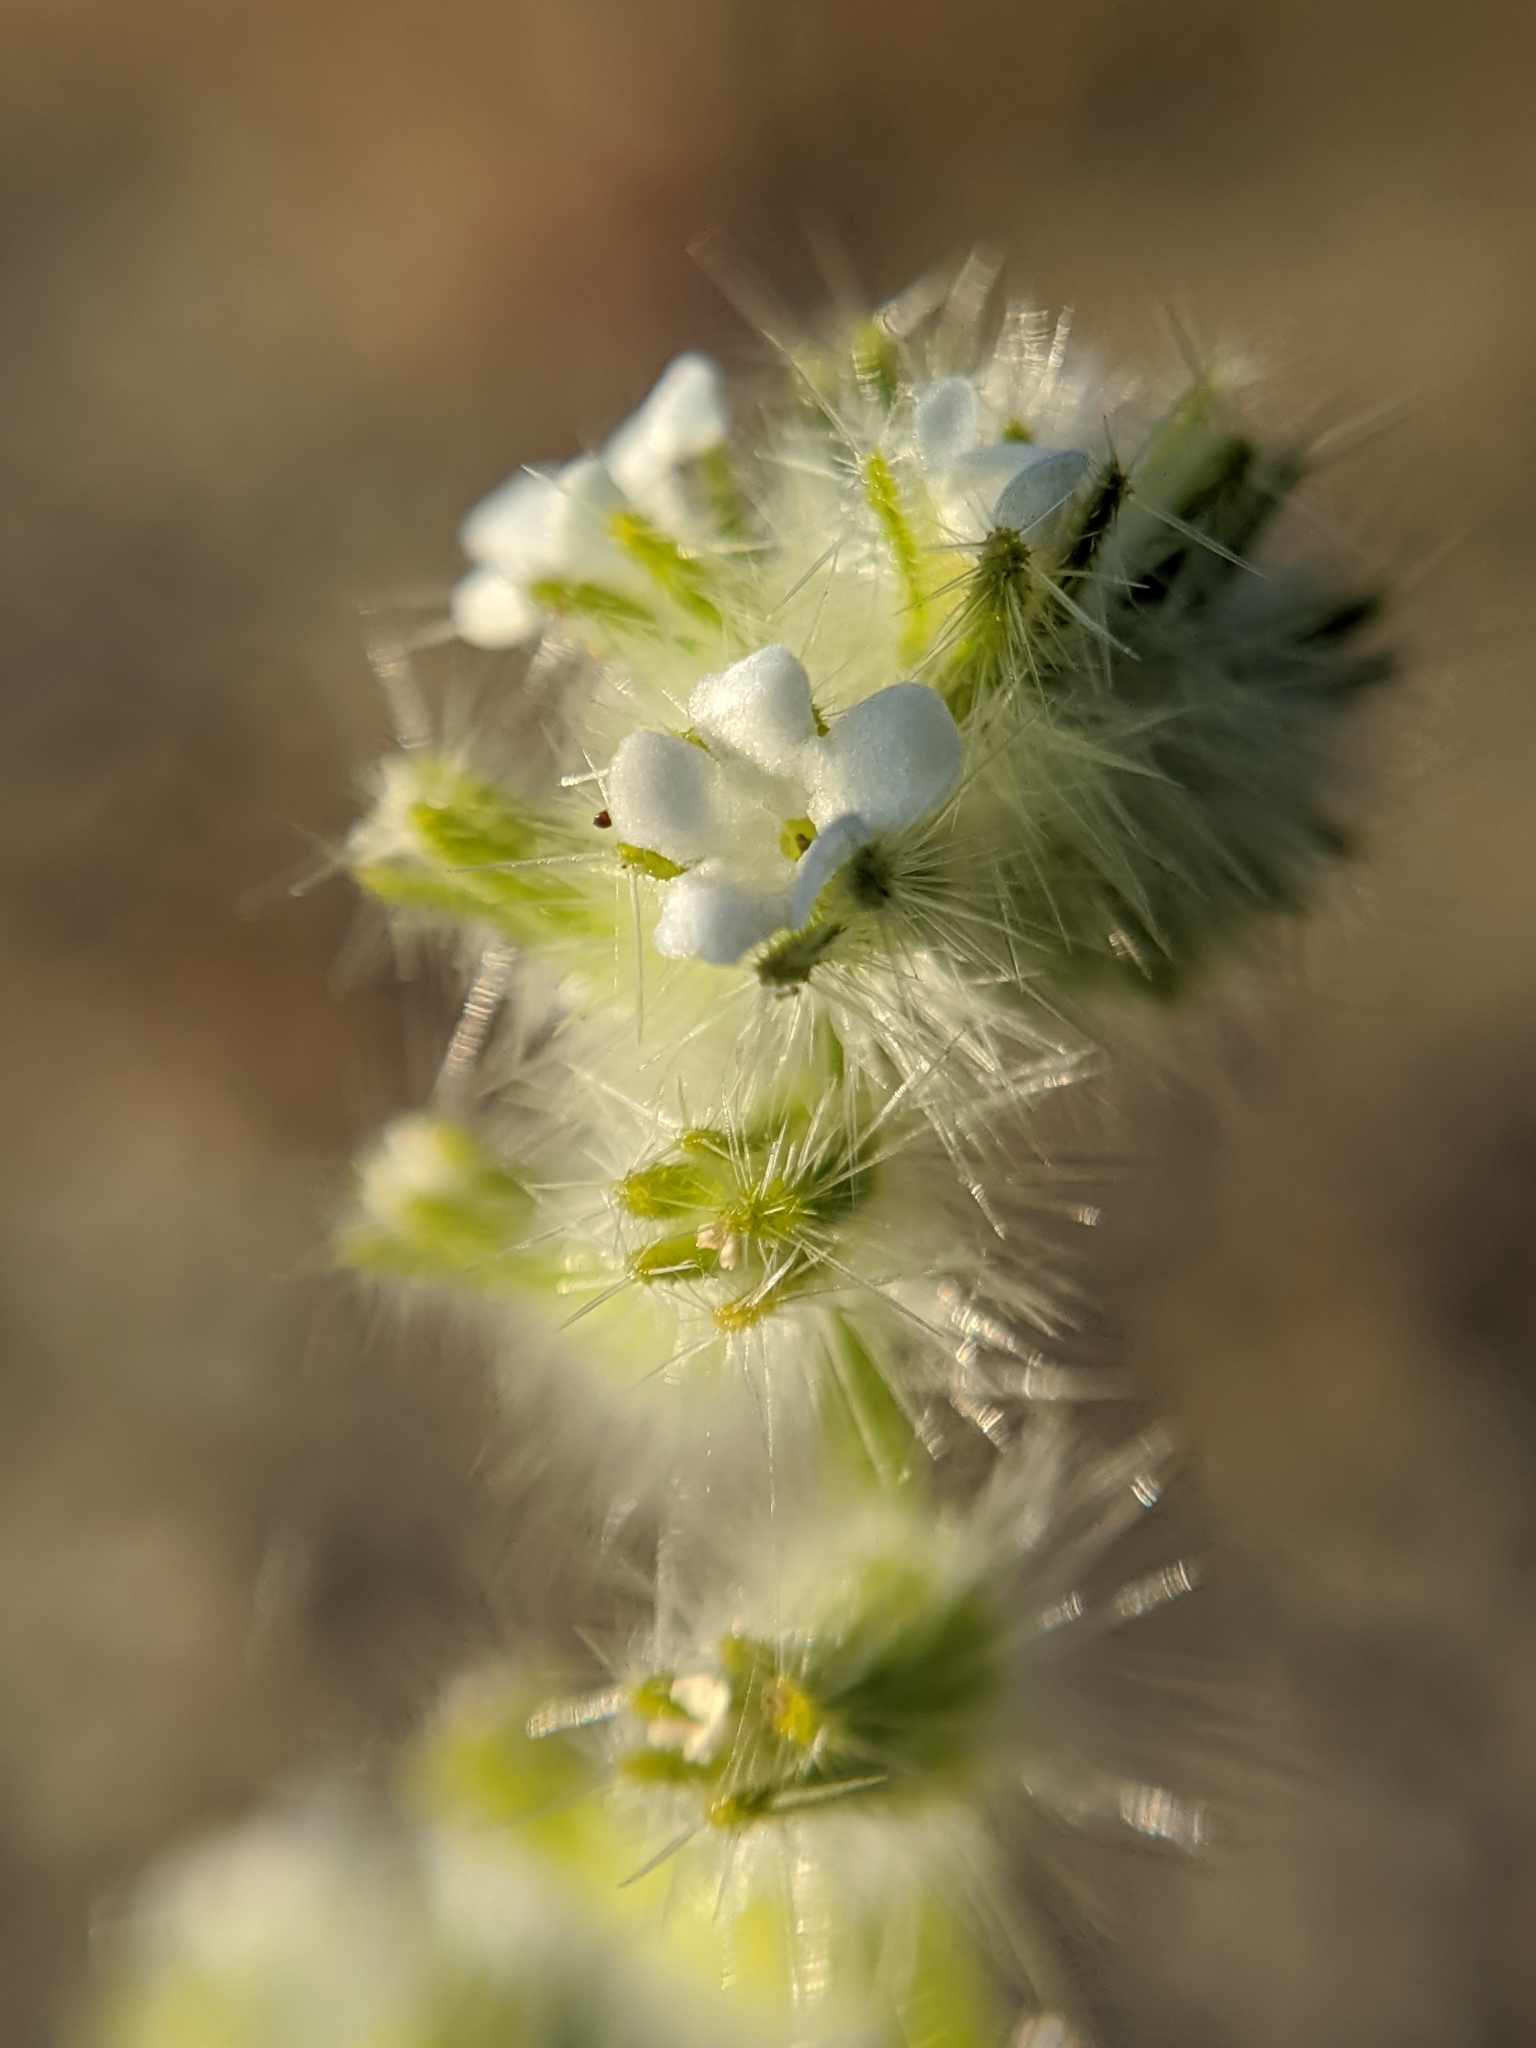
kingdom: Plantae
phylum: Tracheophyta
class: Magnoliopsida
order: Boraginales
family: Boraginaceae
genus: Cryptantha
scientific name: Cryptantha barbigera
